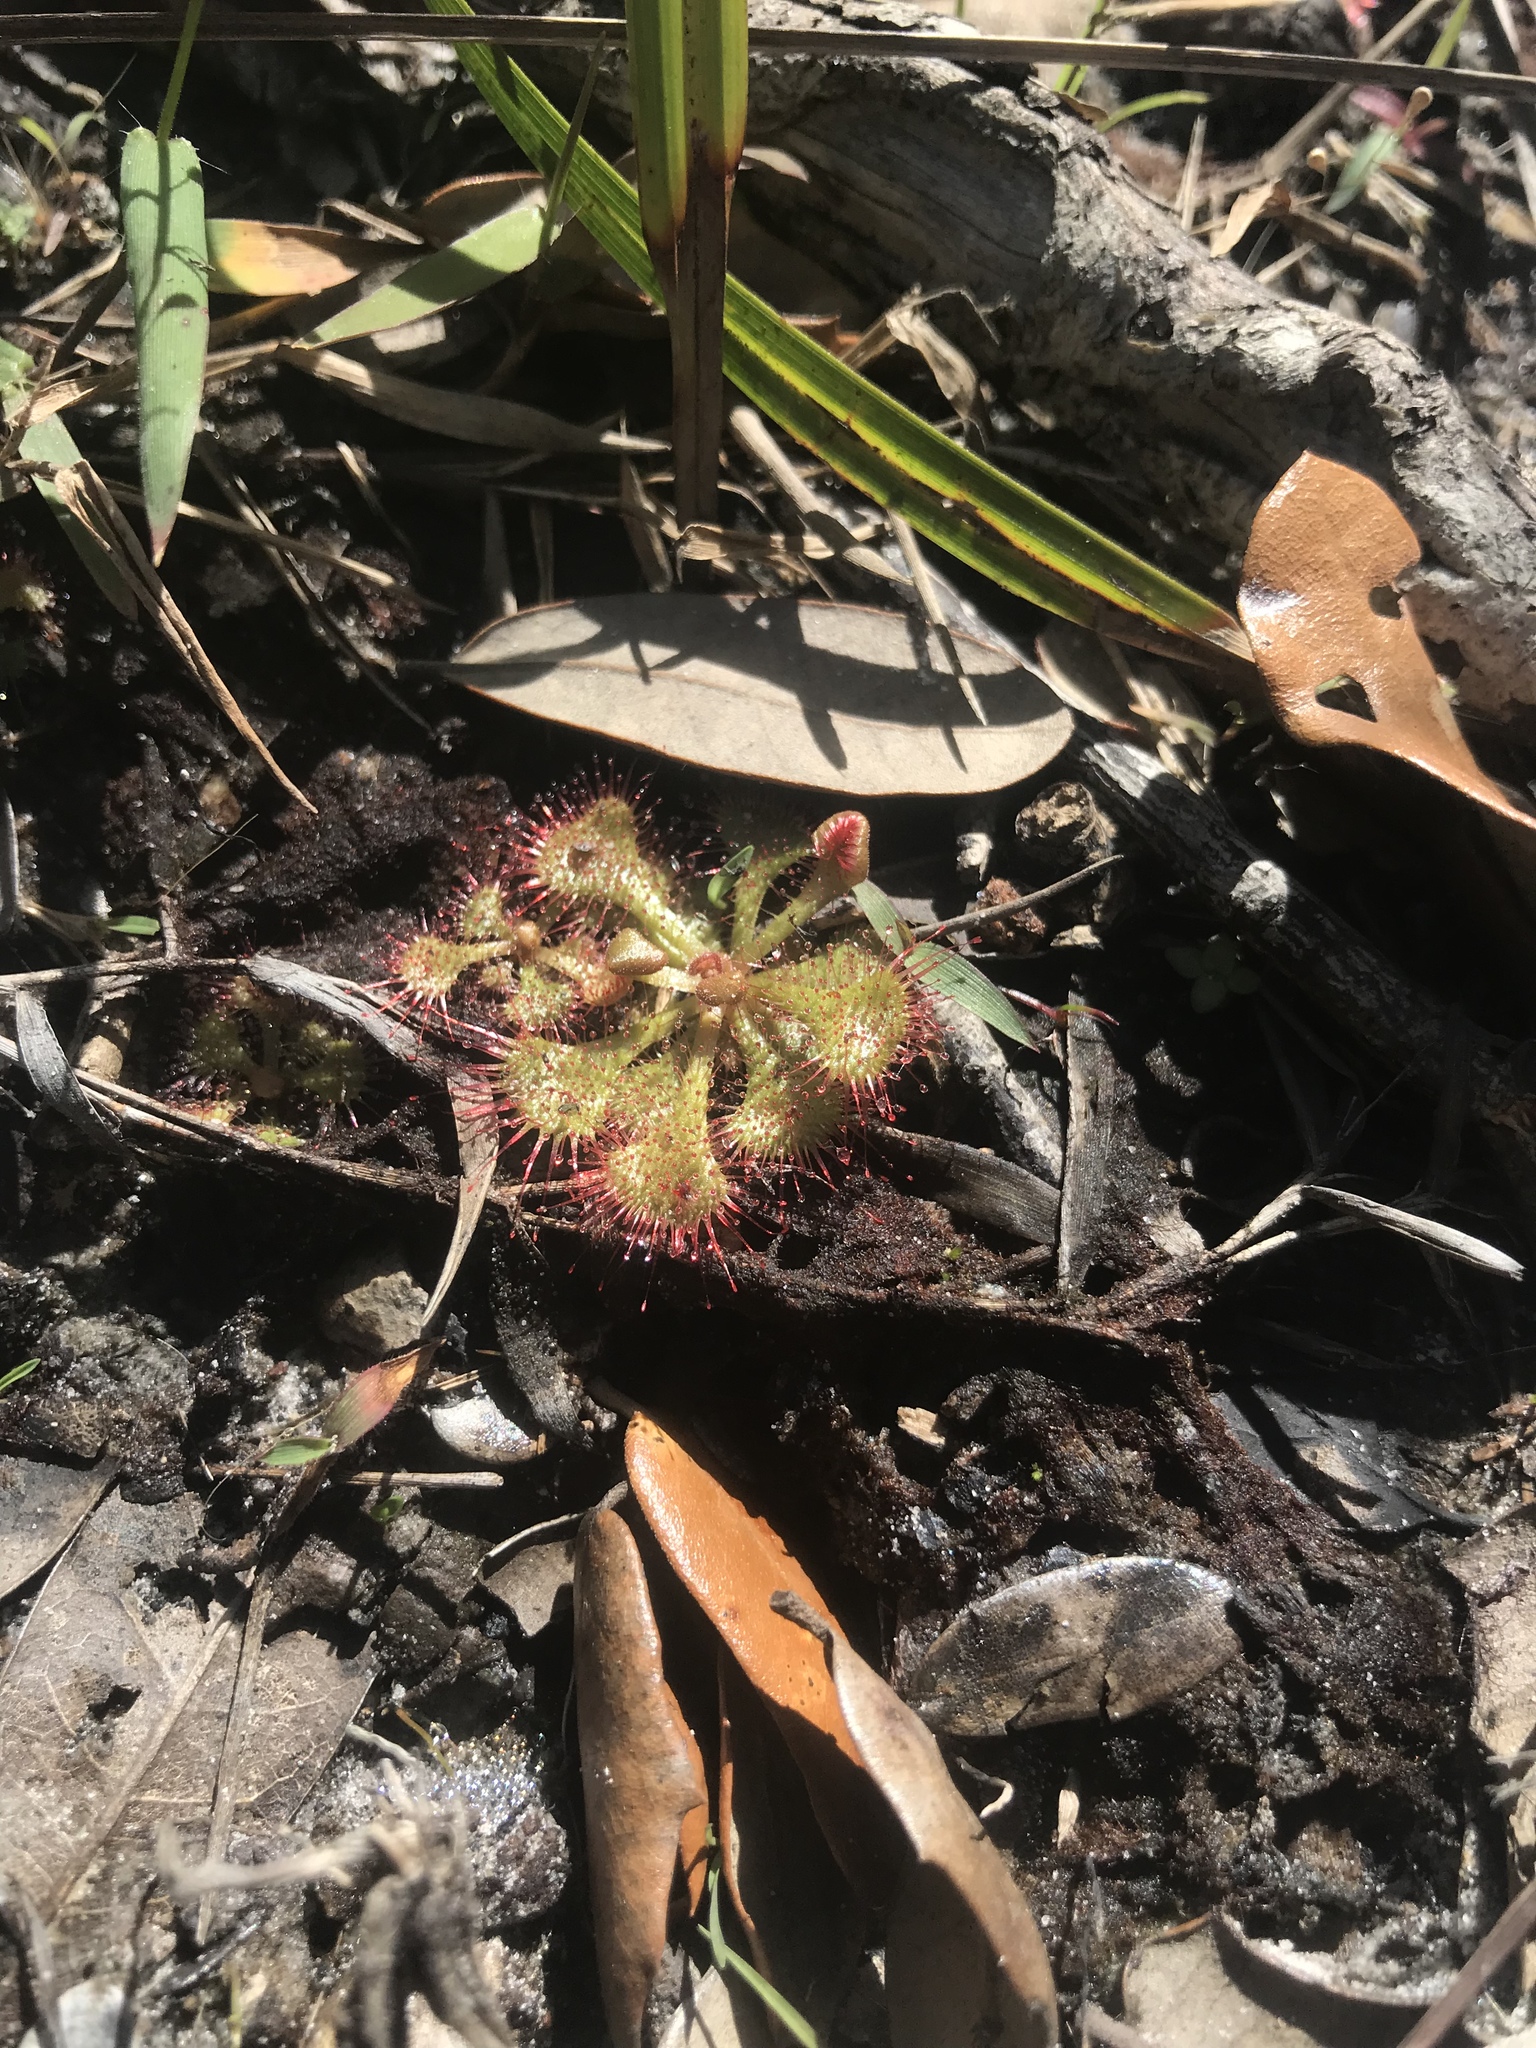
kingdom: Plantae
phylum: Tracheophyta
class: Magnoliopsida
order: Caryophyllales
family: Droseraceae
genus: Drosera
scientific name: Drosera brevifolia
